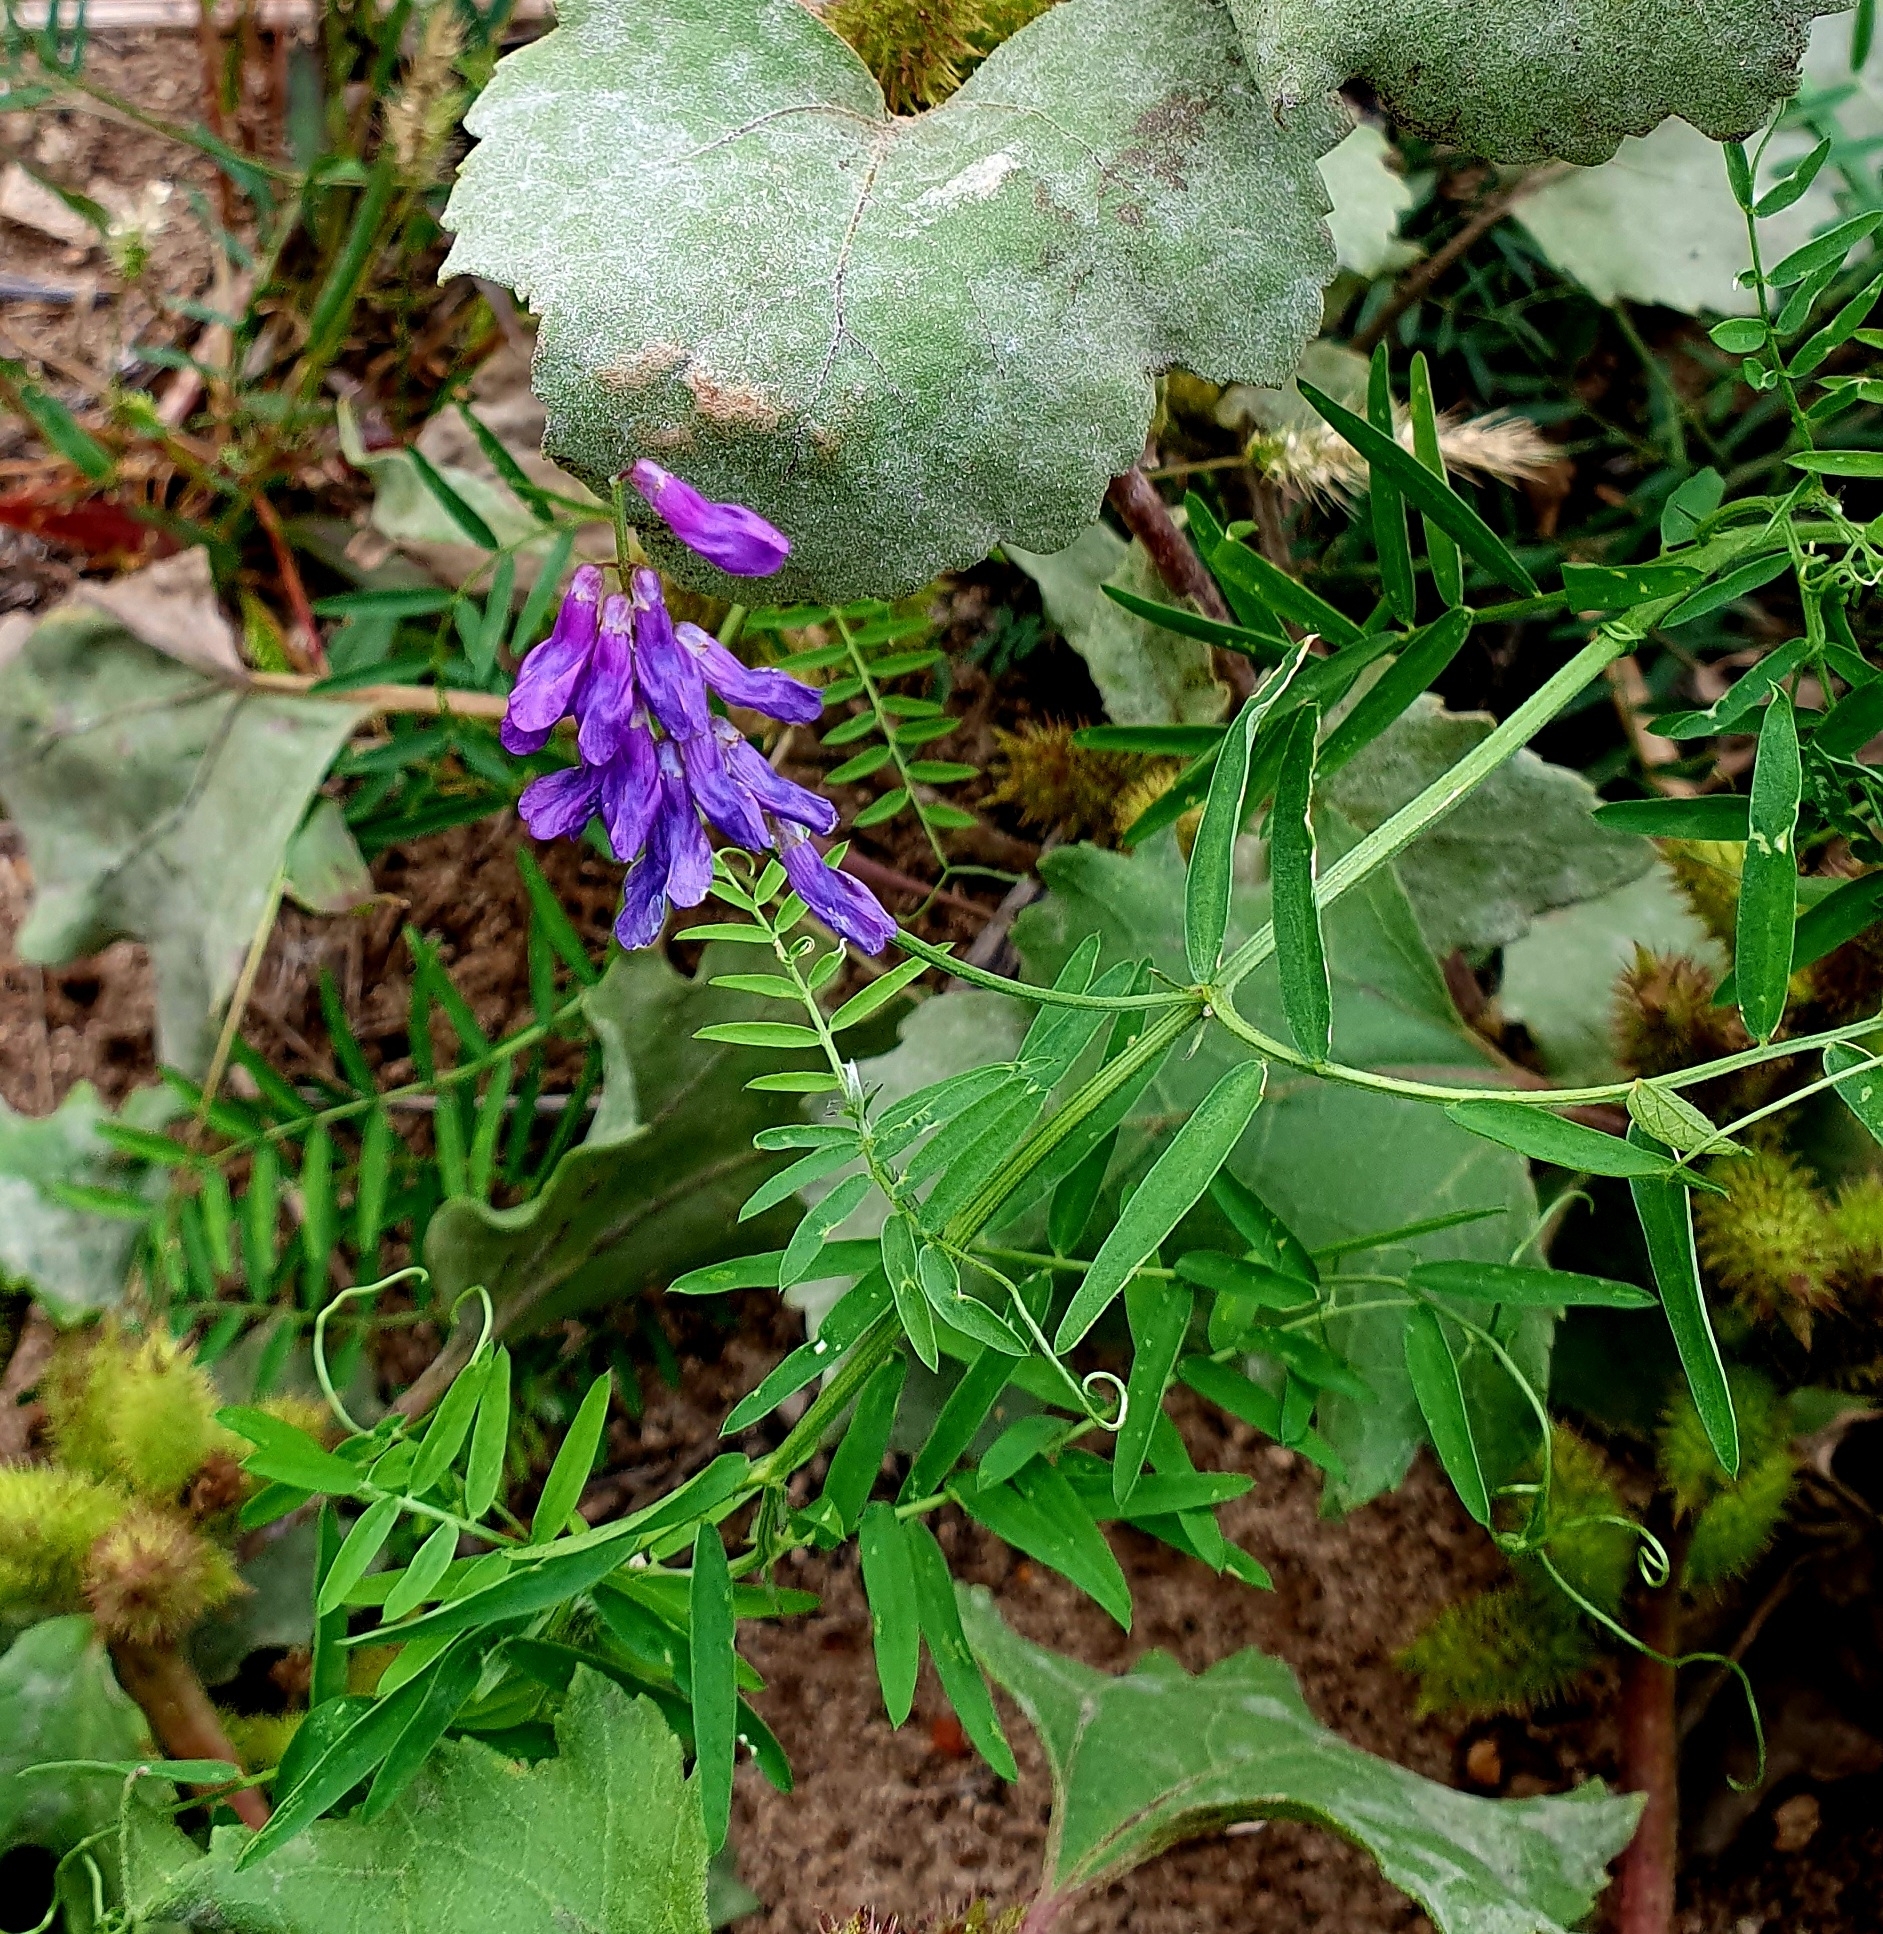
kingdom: Plantae
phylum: Tracheophyta
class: Magnoliopsida
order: Fabales
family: Fabaceae
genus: Vicia
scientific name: Vicia cracca
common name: Bird vetch
